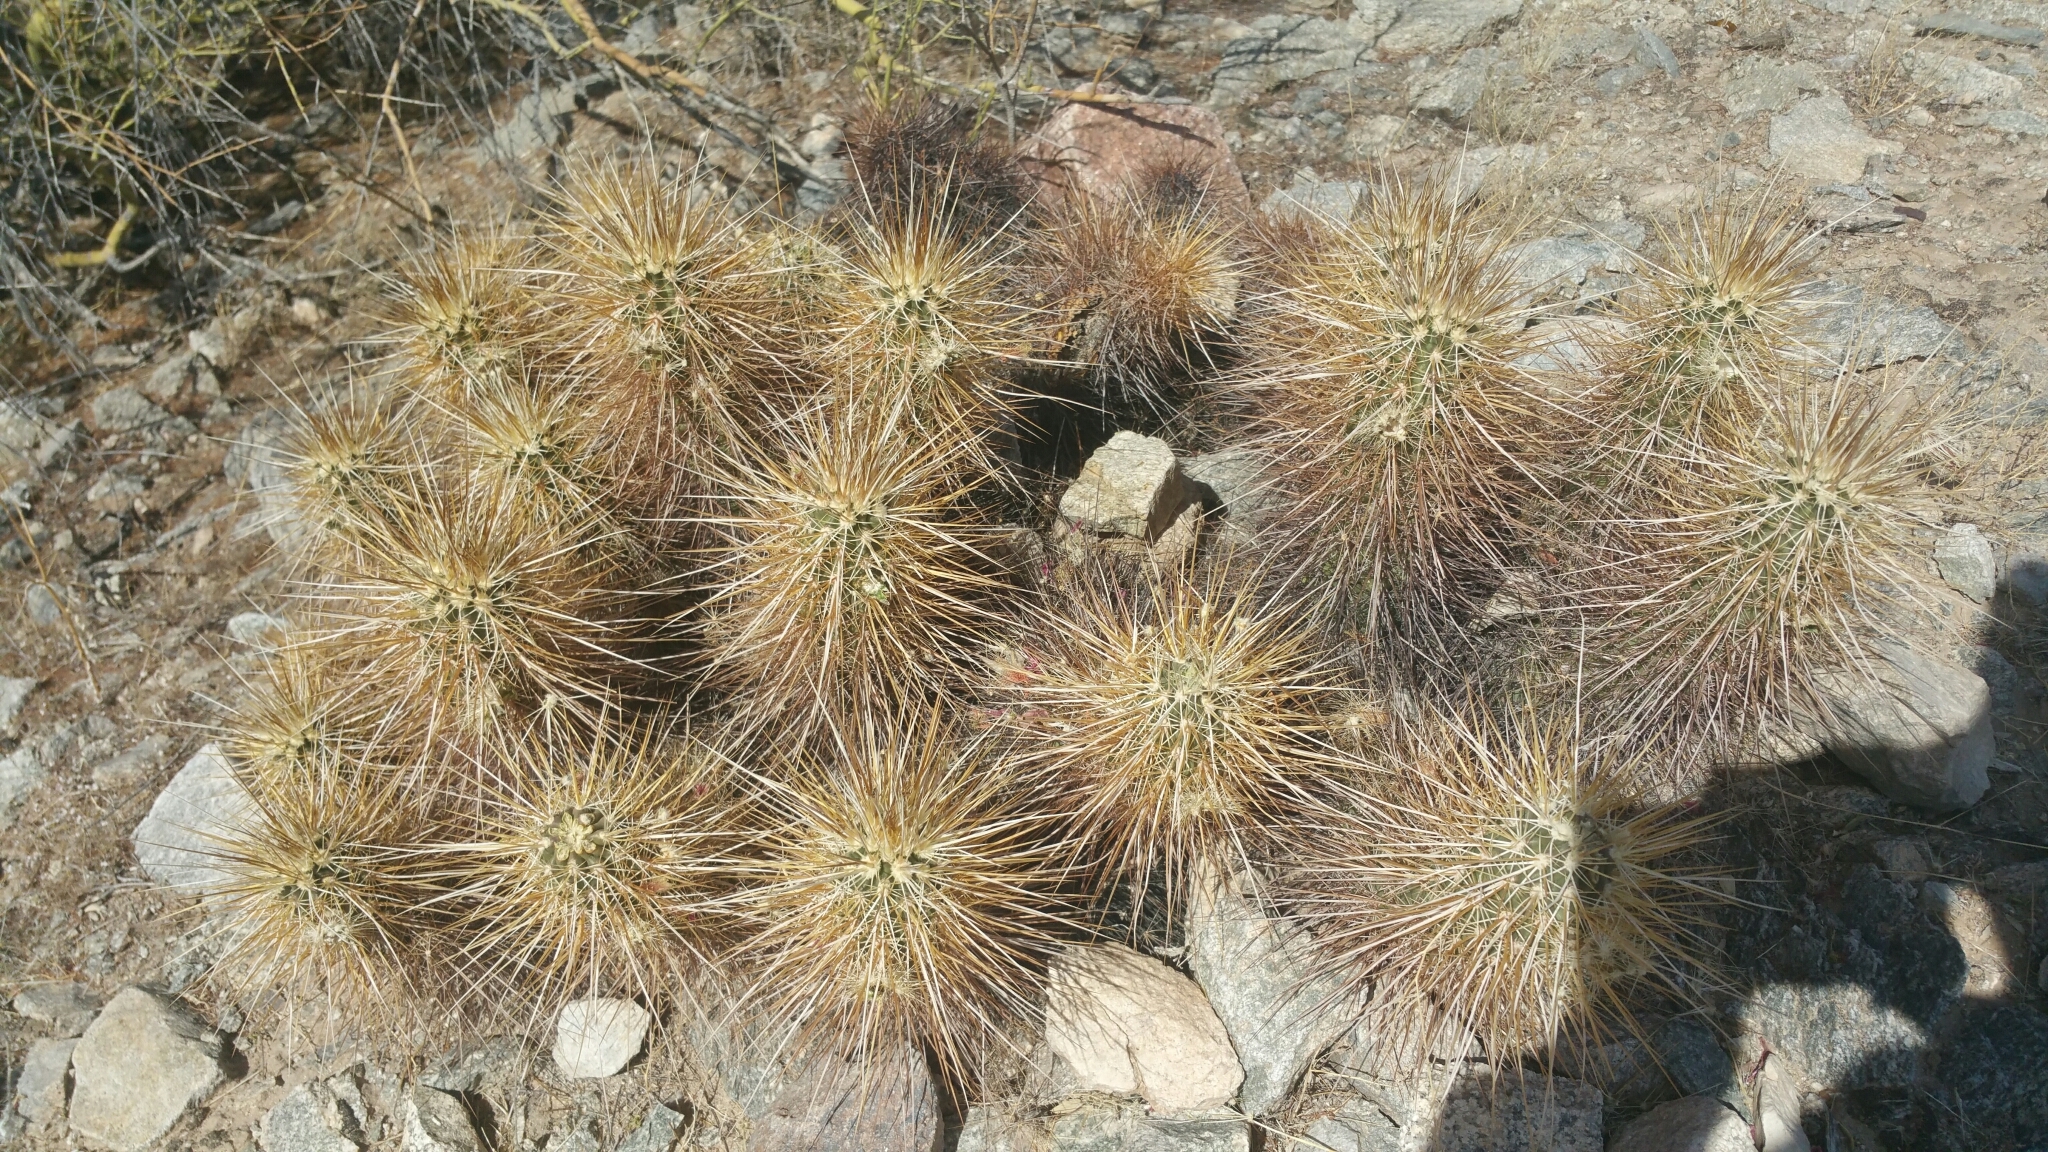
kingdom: Plantae
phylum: Tracheophyta
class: Magnoliopsida
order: Caryophyllales
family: Cactaceae
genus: Echinocereus
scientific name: Echinocereus engelmannii
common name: Engelmann's hedgehog cactus
